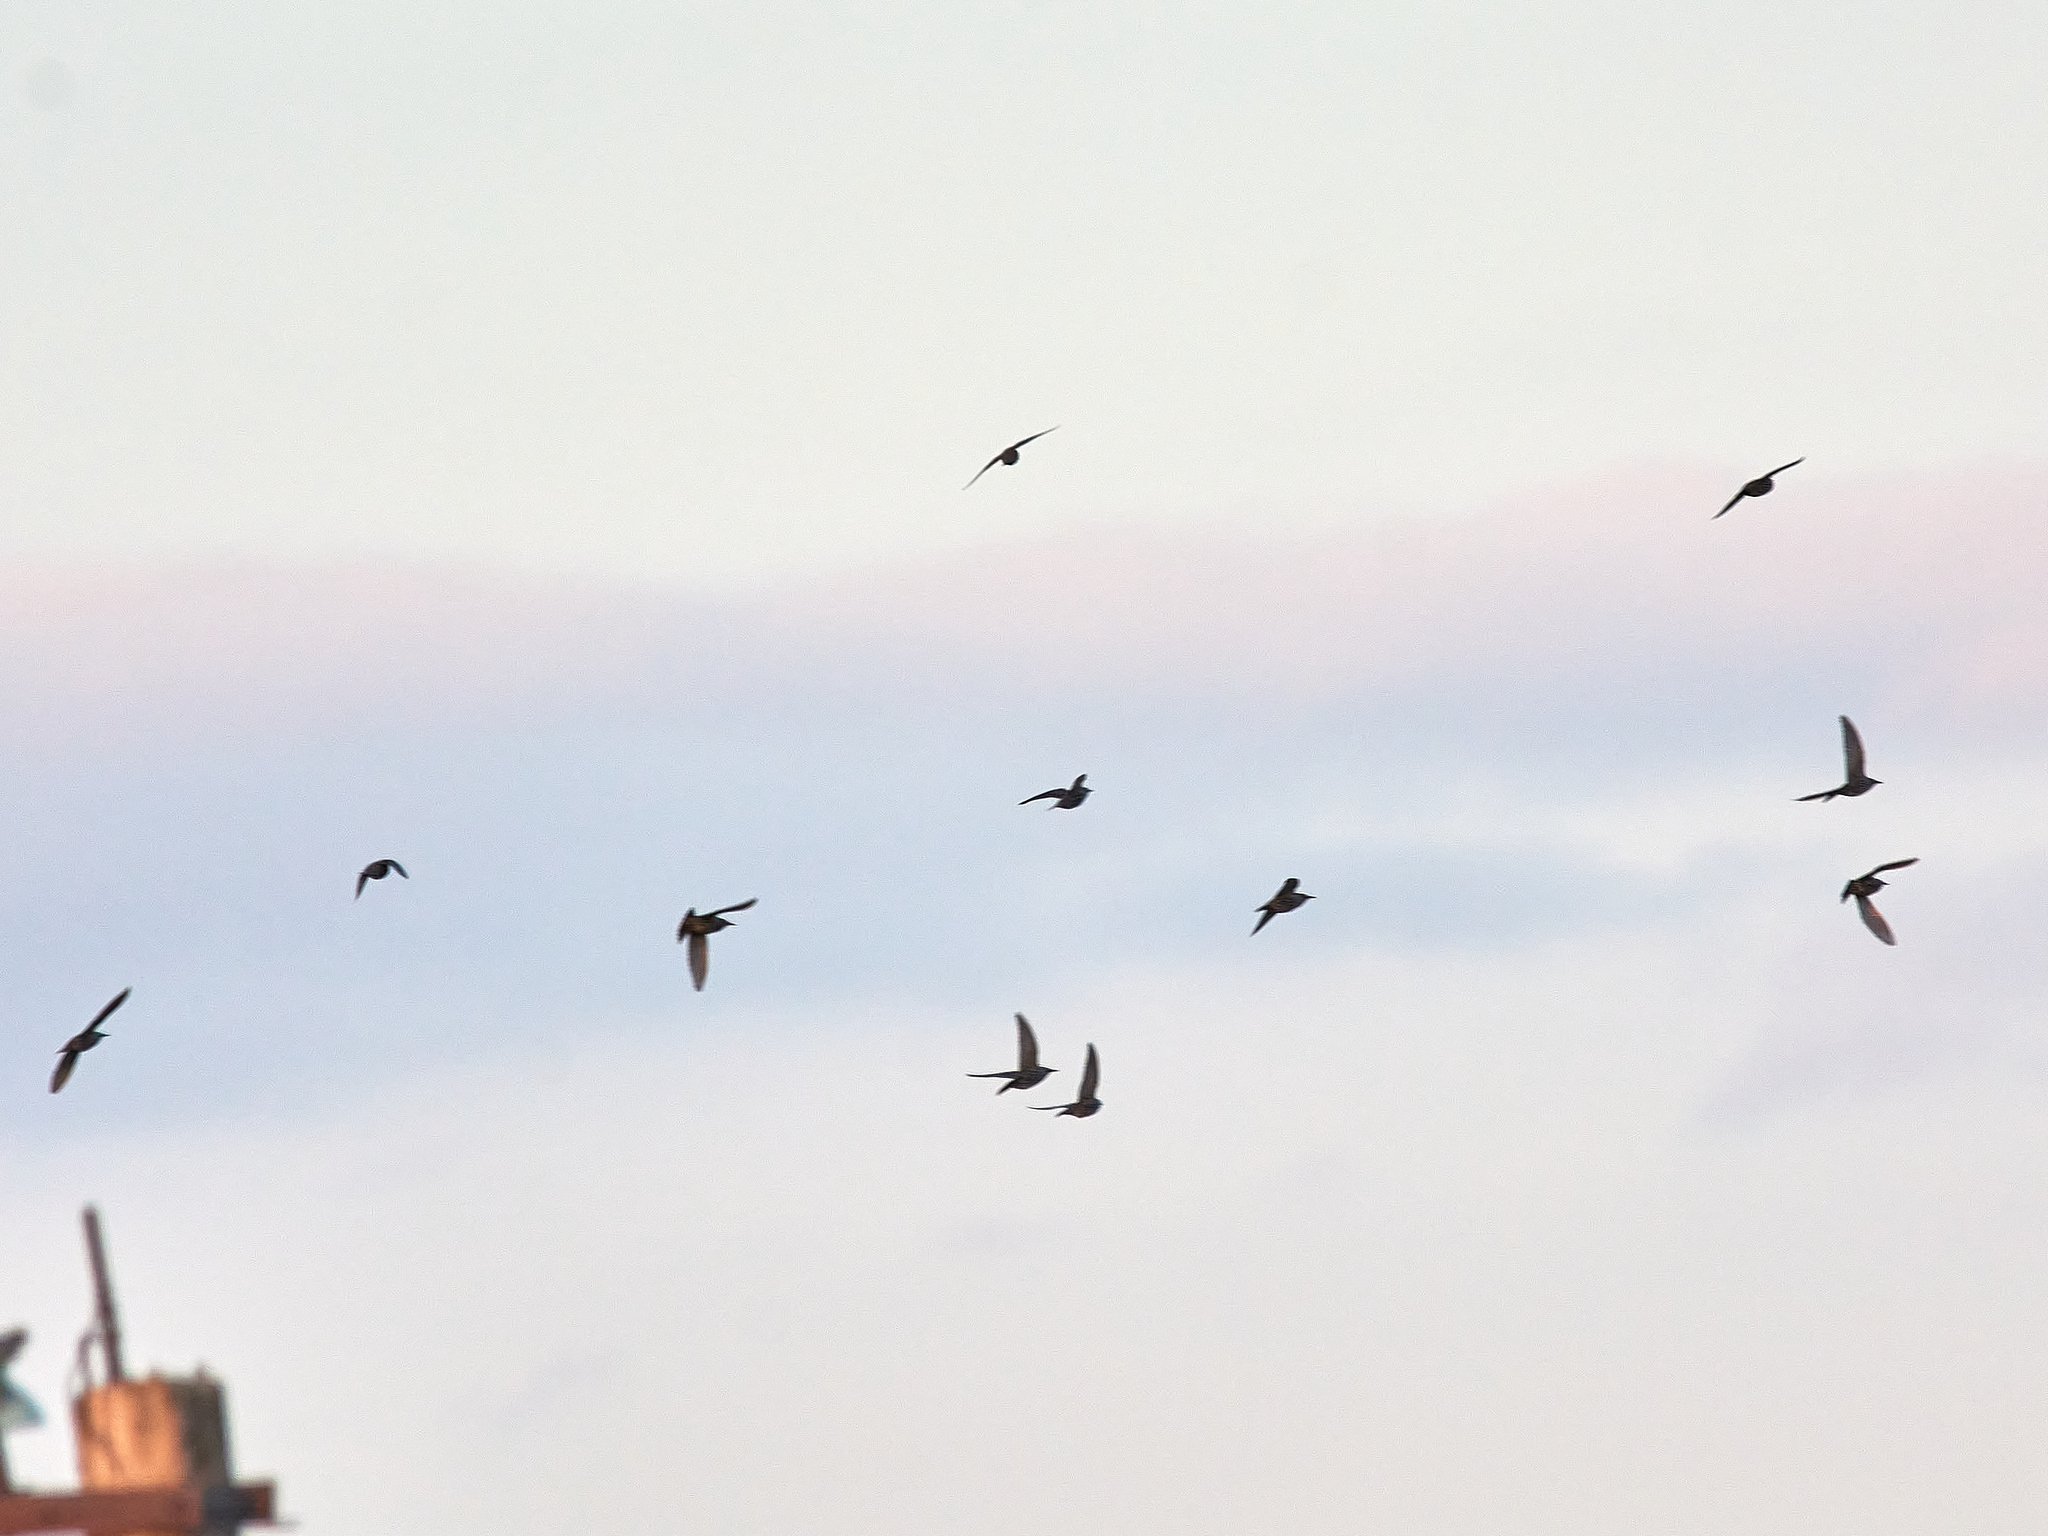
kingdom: Animalia
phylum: Chordata
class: Aves
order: Passeriformes
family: Sturnidae
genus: Sturnus
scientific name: Sturnus vulgaris
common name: Common starling
